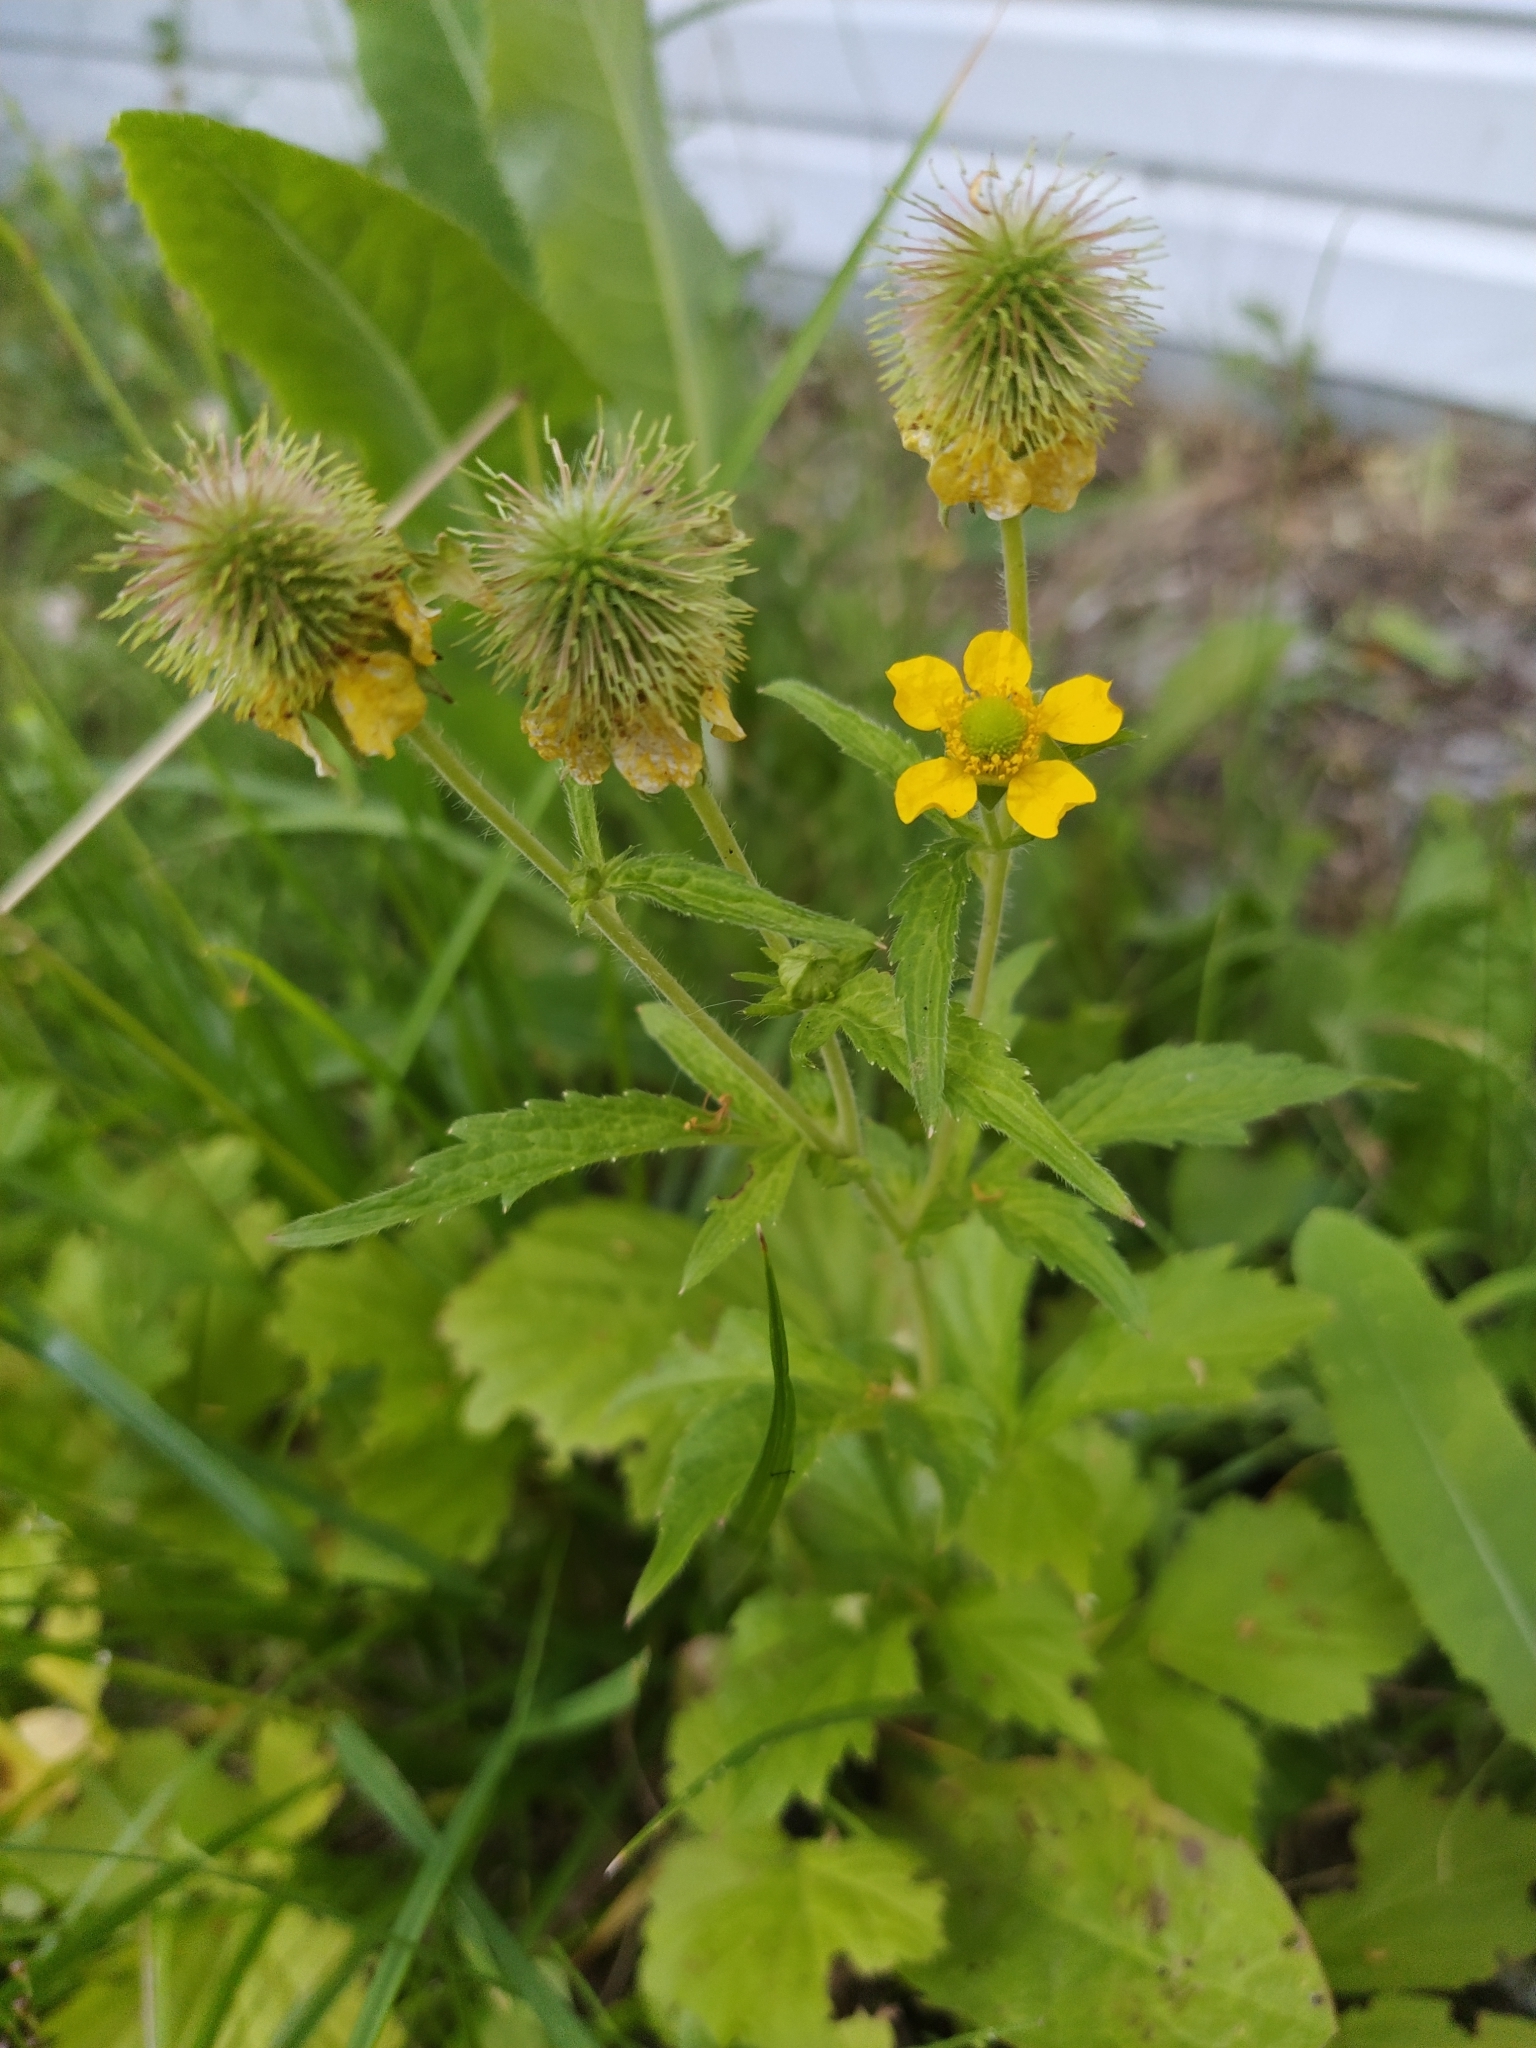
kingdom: Plantae
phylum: Tracheophyta
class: Magnoliopsida
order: Rosales
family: Rosaceae
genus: Geum
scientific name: Geum aleppicum
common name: Yellow avens
